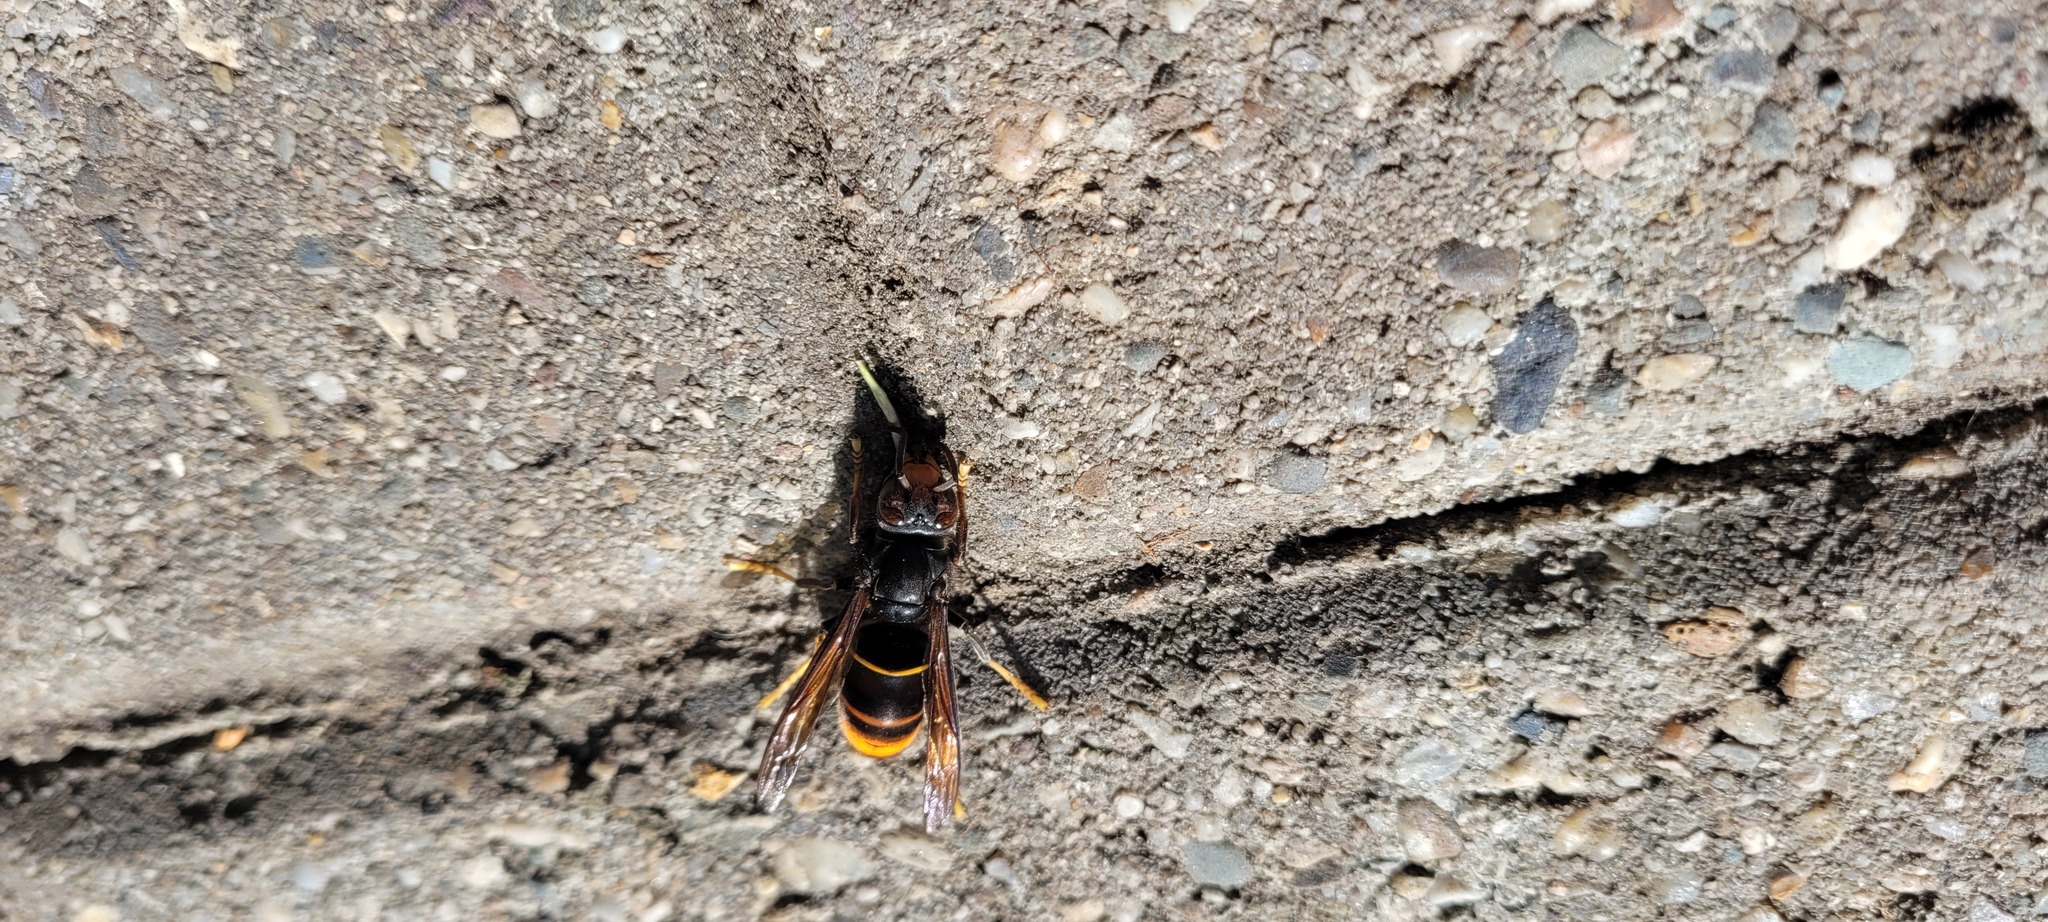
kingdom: Animalia
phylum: Arthropoda
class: Insecta
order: Hymenoptera
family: Vespidae
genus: Vespa
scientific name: Vespa velutina
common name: Asian hornet
